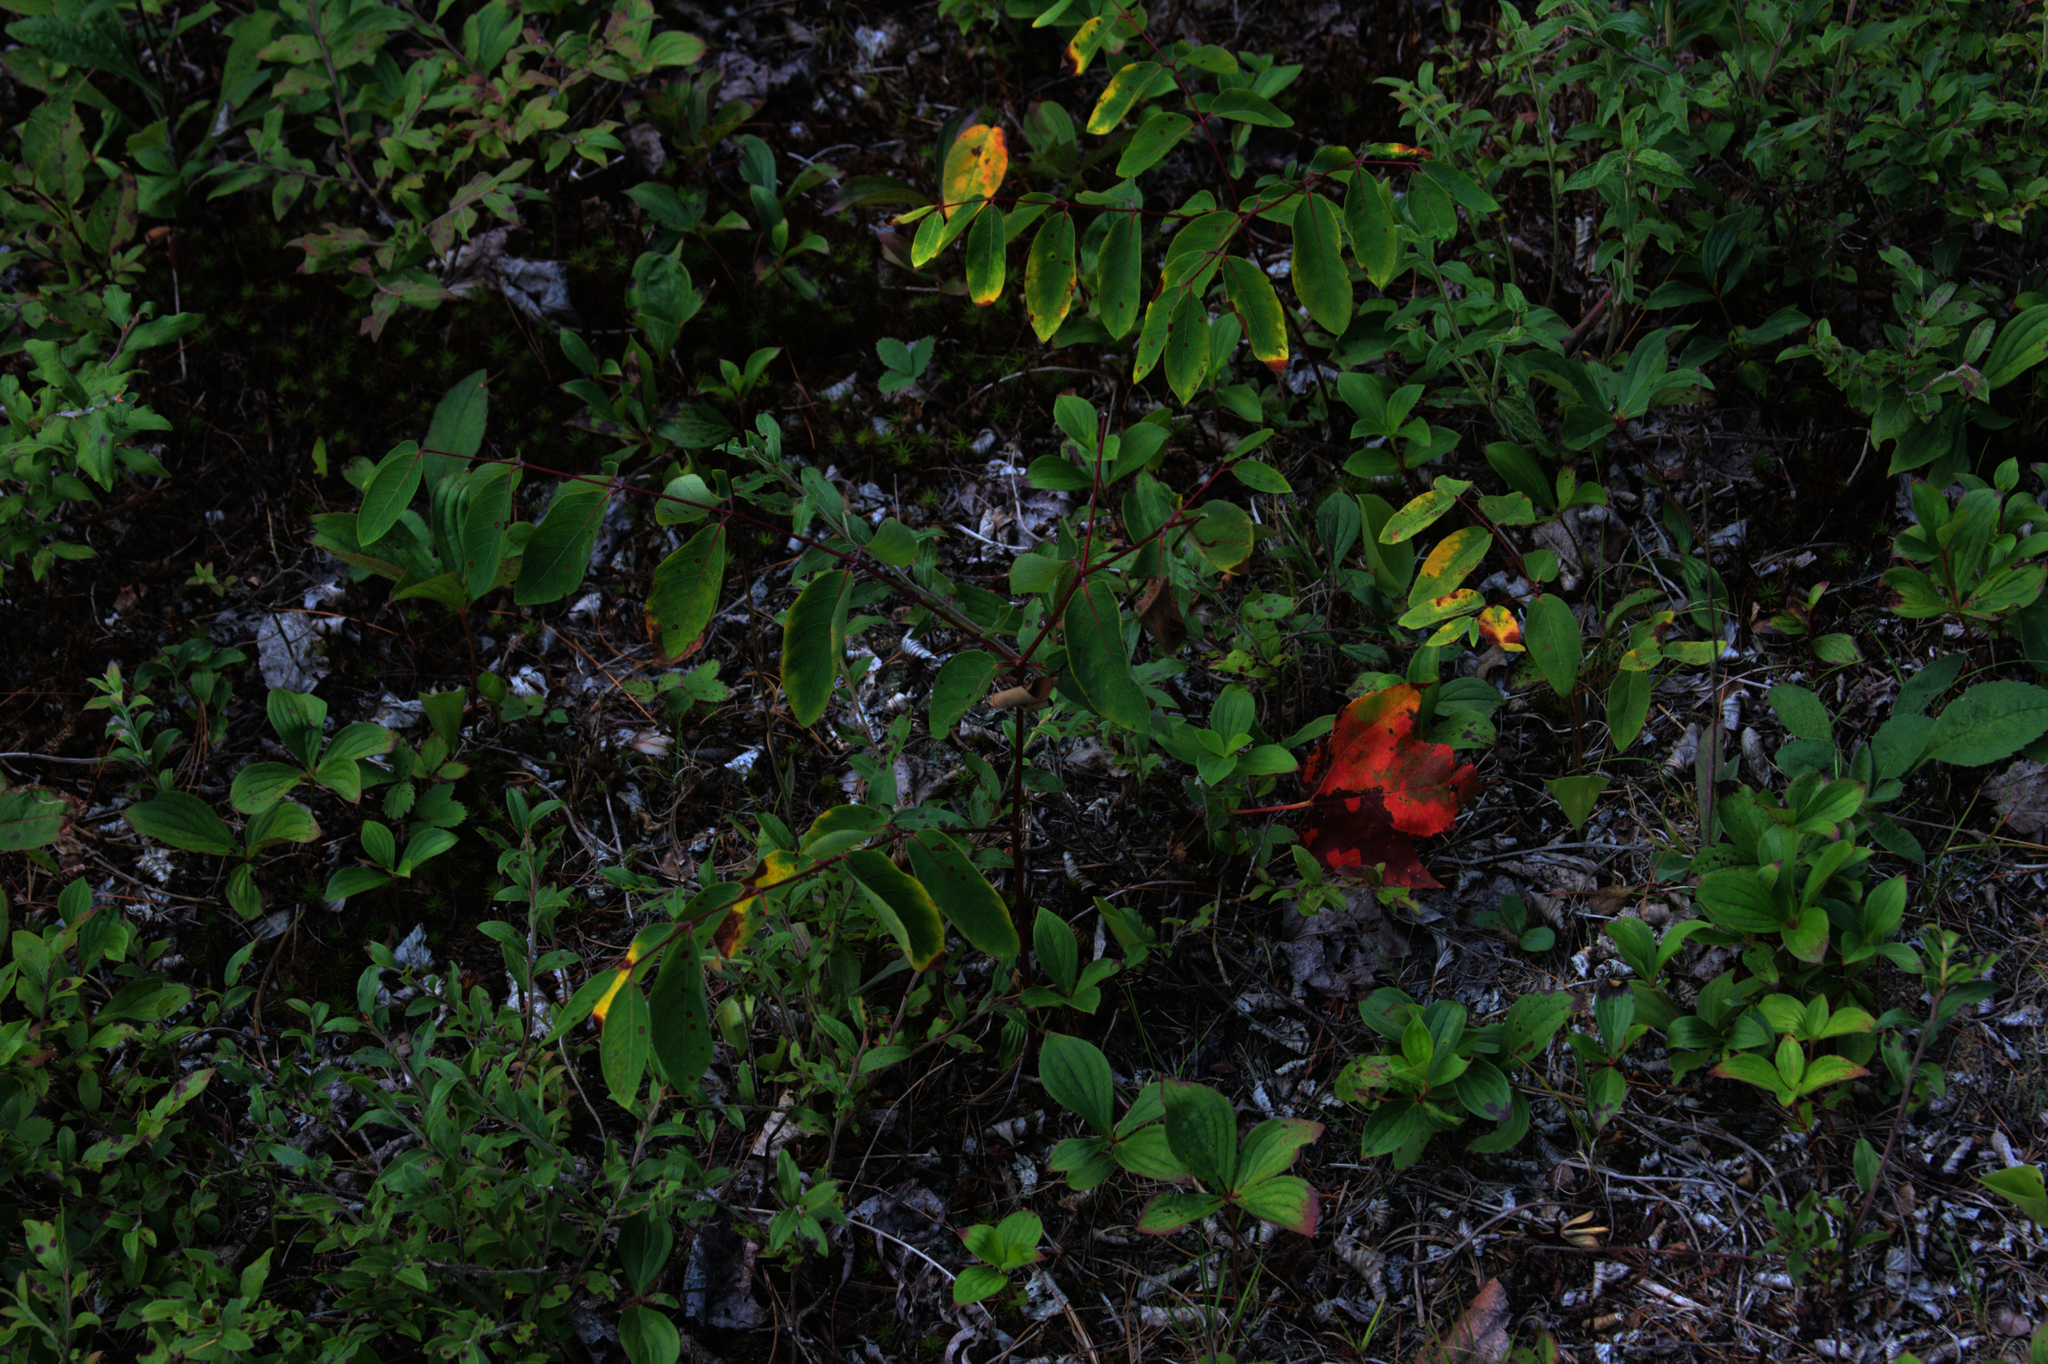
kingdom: Plantae
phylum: Tracheophyta
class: Magnoliopsida
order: Gentianales
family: Apocynaceae
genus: Apocynum
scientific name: Apocynum androsaemifolium
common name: Spreading dogbane
